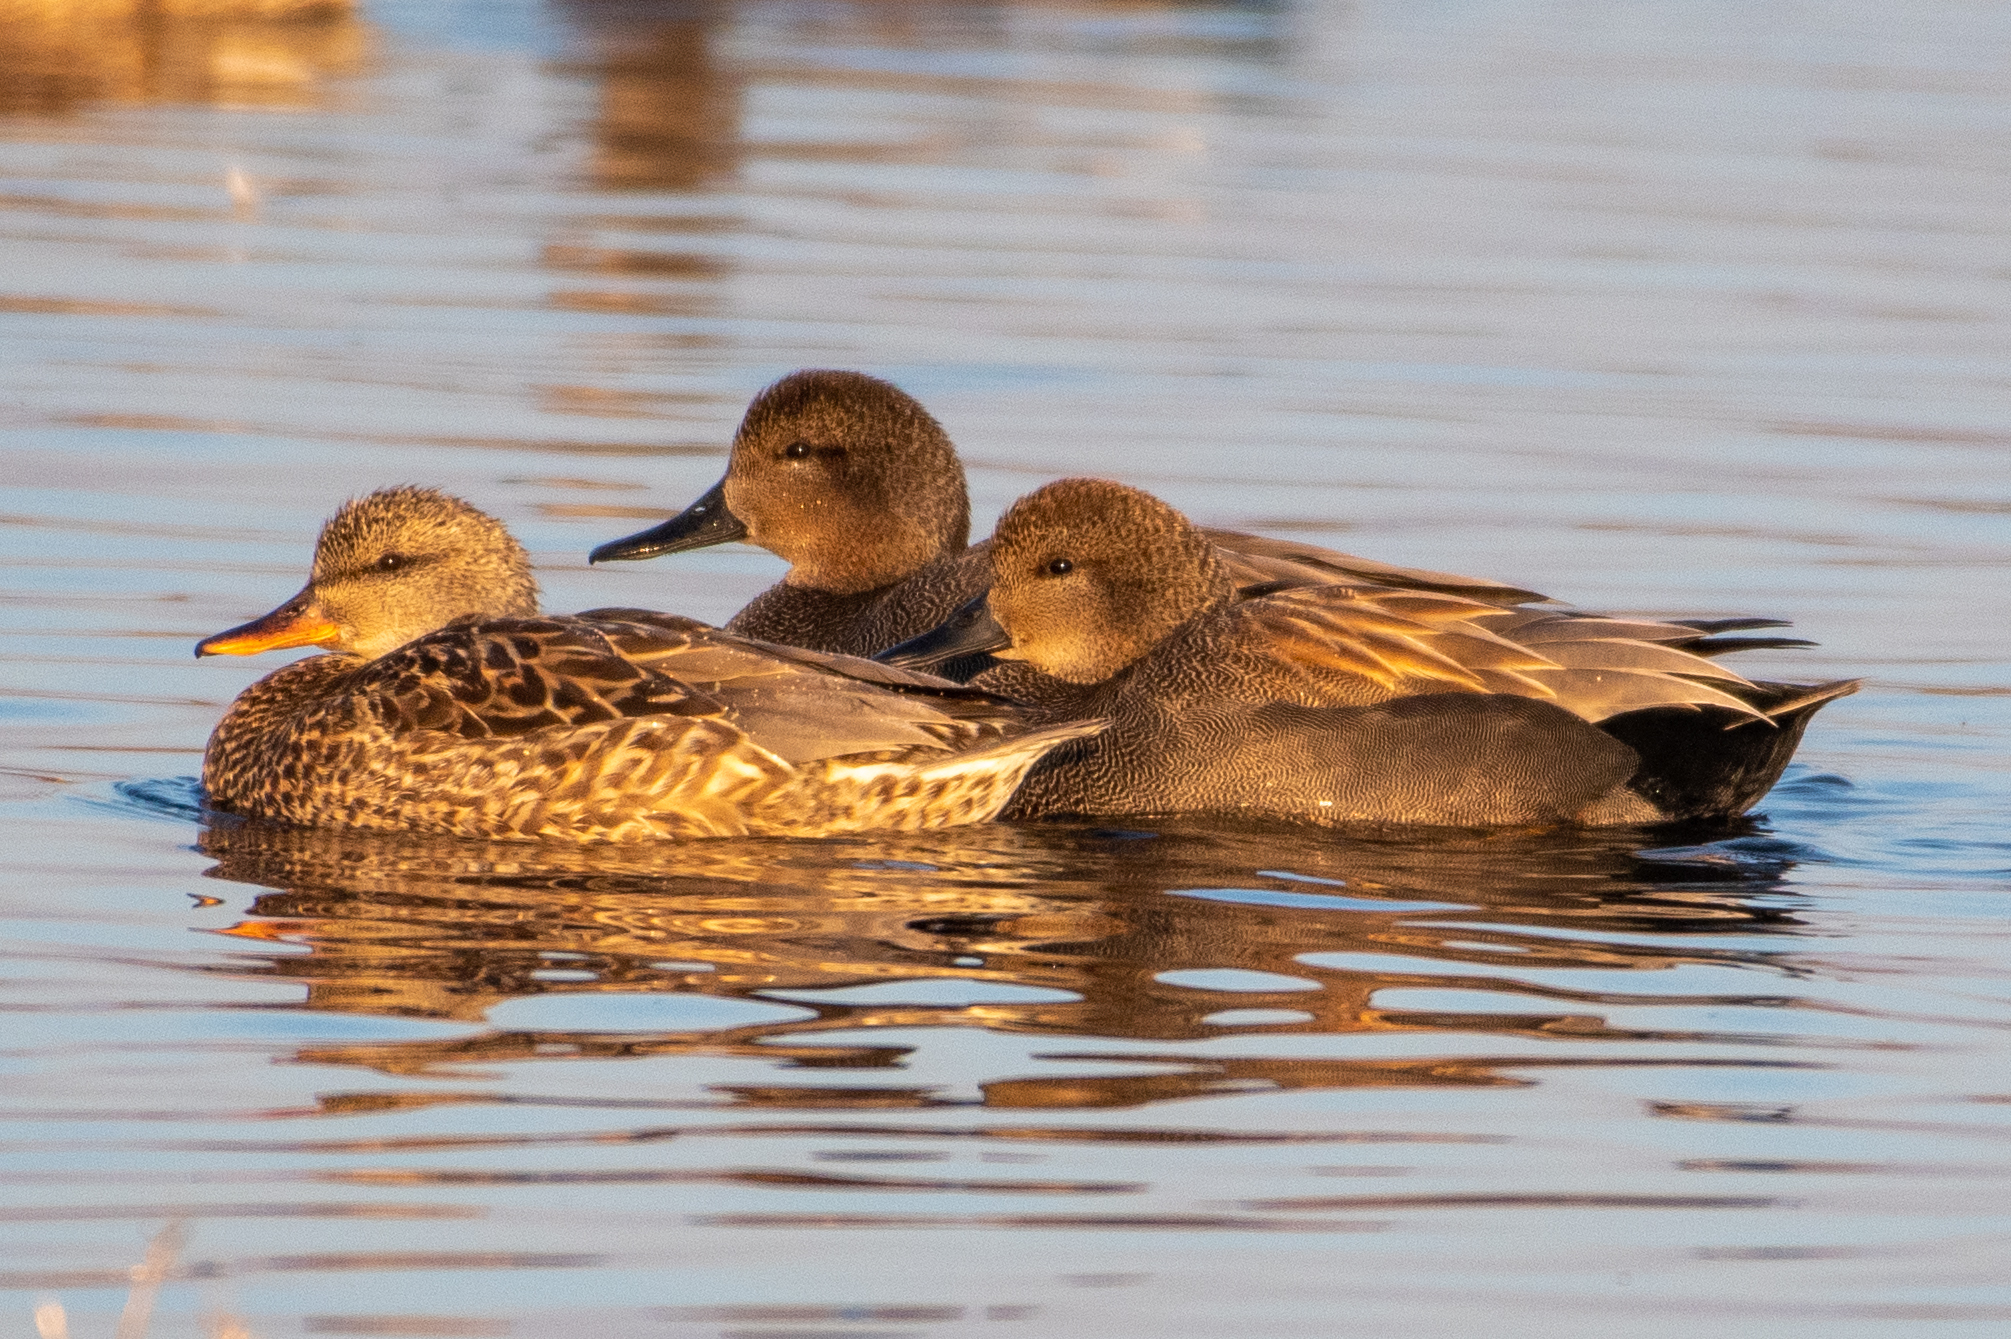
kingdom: Animalia
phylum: Chordata
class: Aves
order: Anseriformes
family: Anatidae
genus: Mareca
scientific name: Mareca strepera
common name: Gadwall
